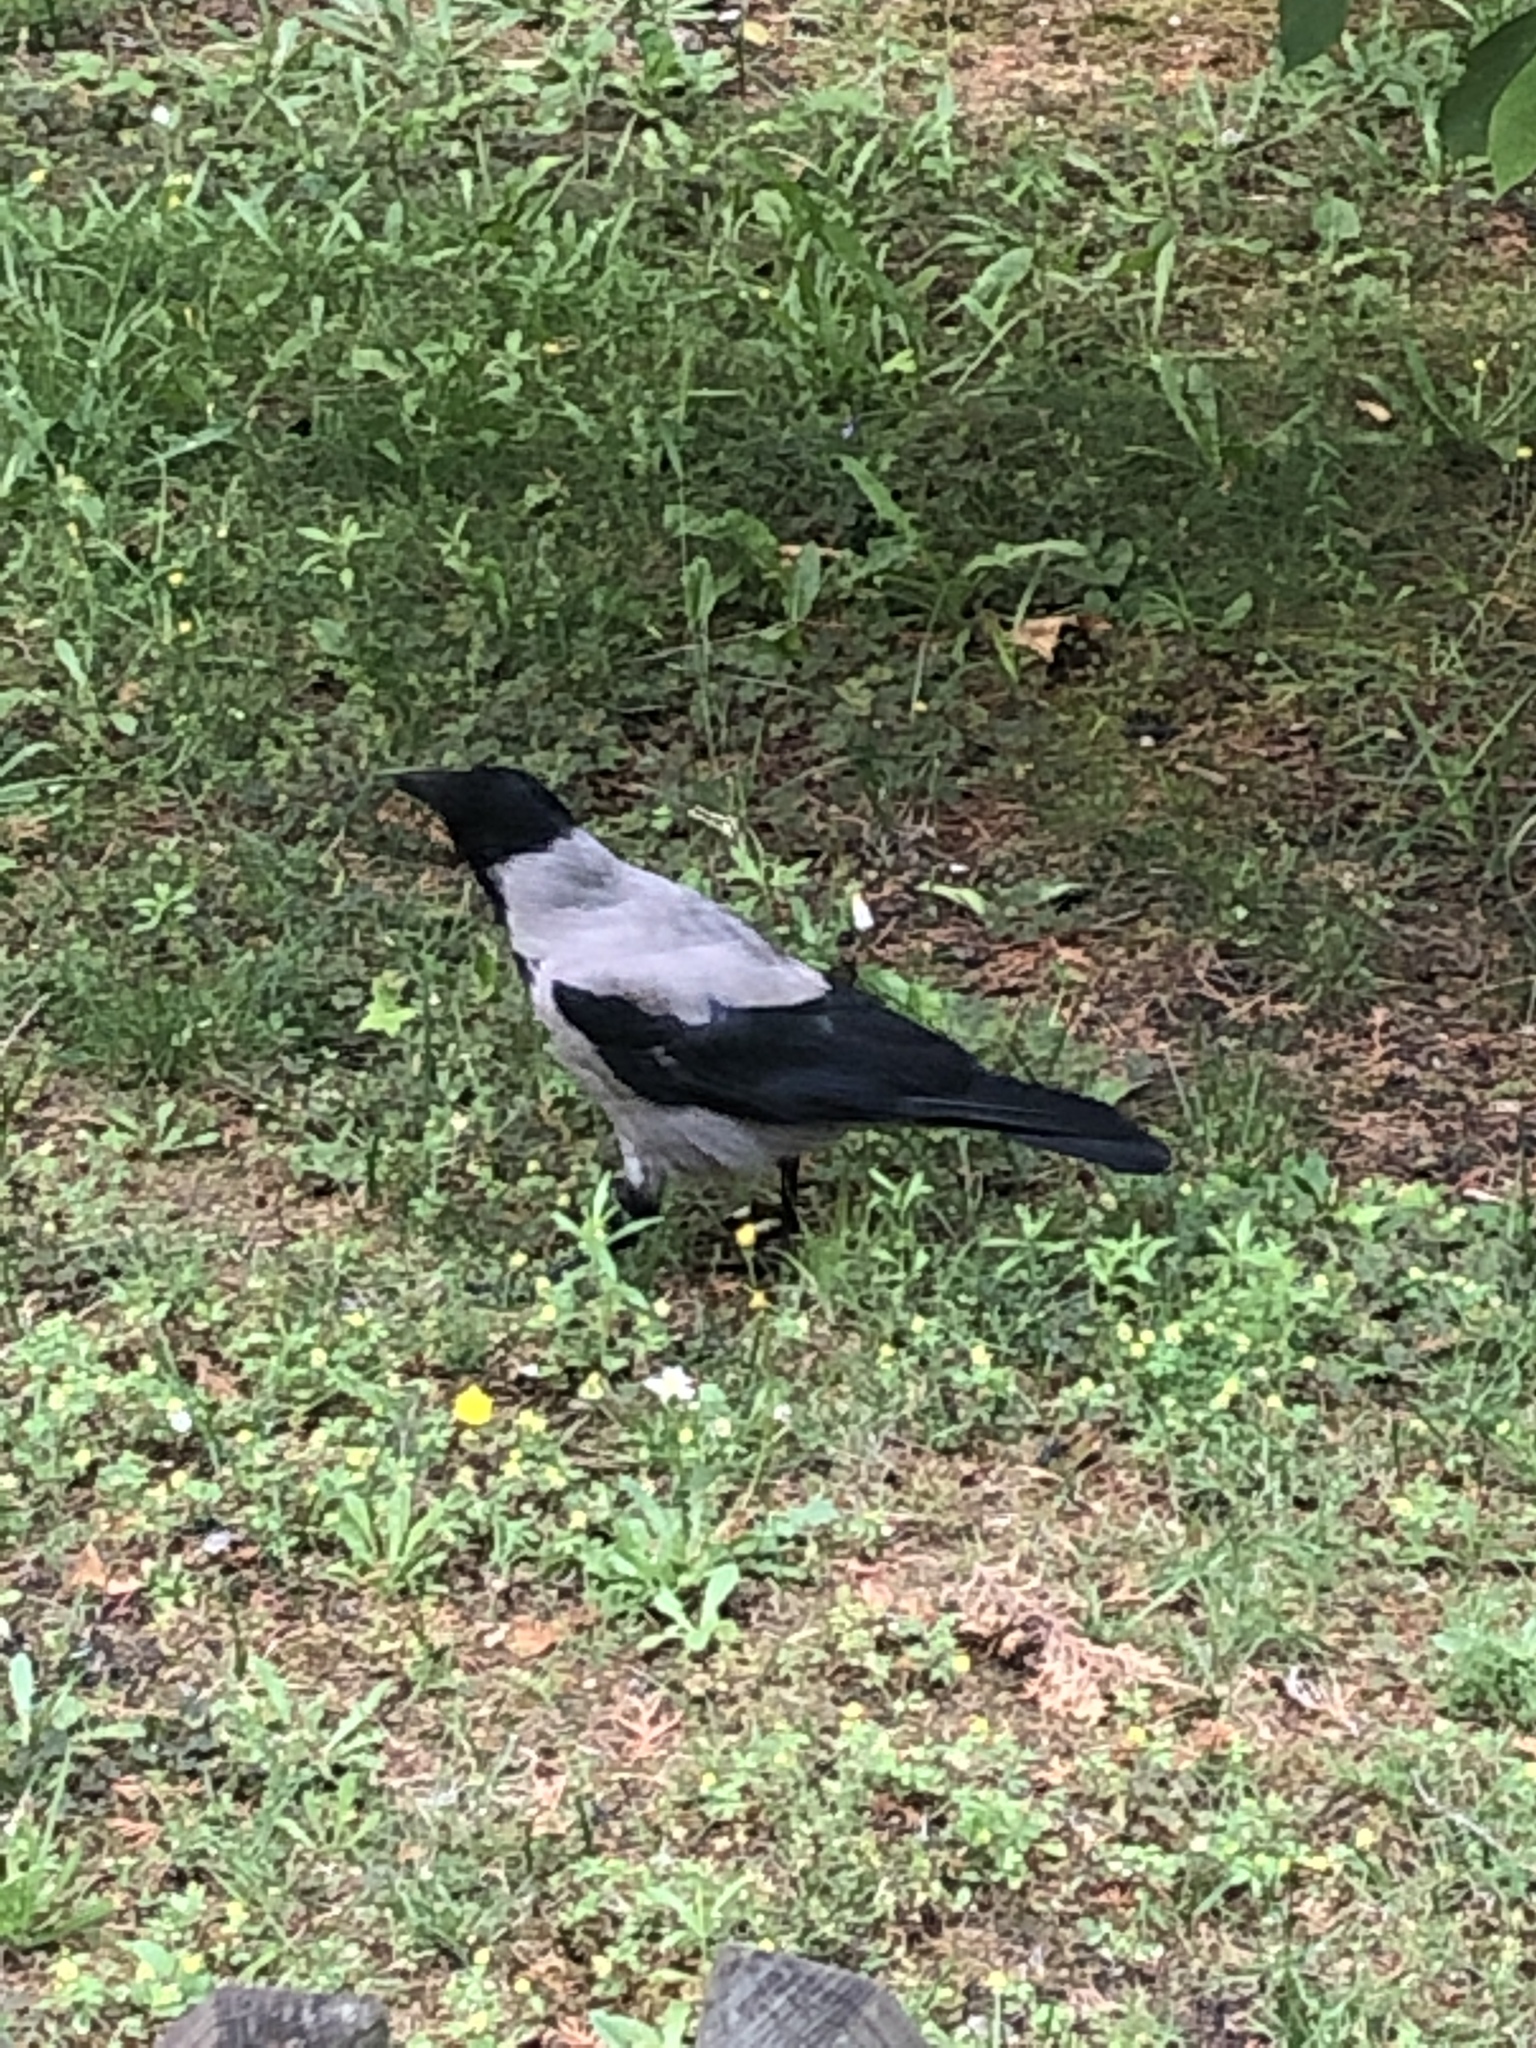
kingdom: Animalia
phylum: Chordata
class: Aves
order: Passeriformes
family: Corvidae
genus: Corvus
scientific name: Corvus cornix
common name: Hooded crow
